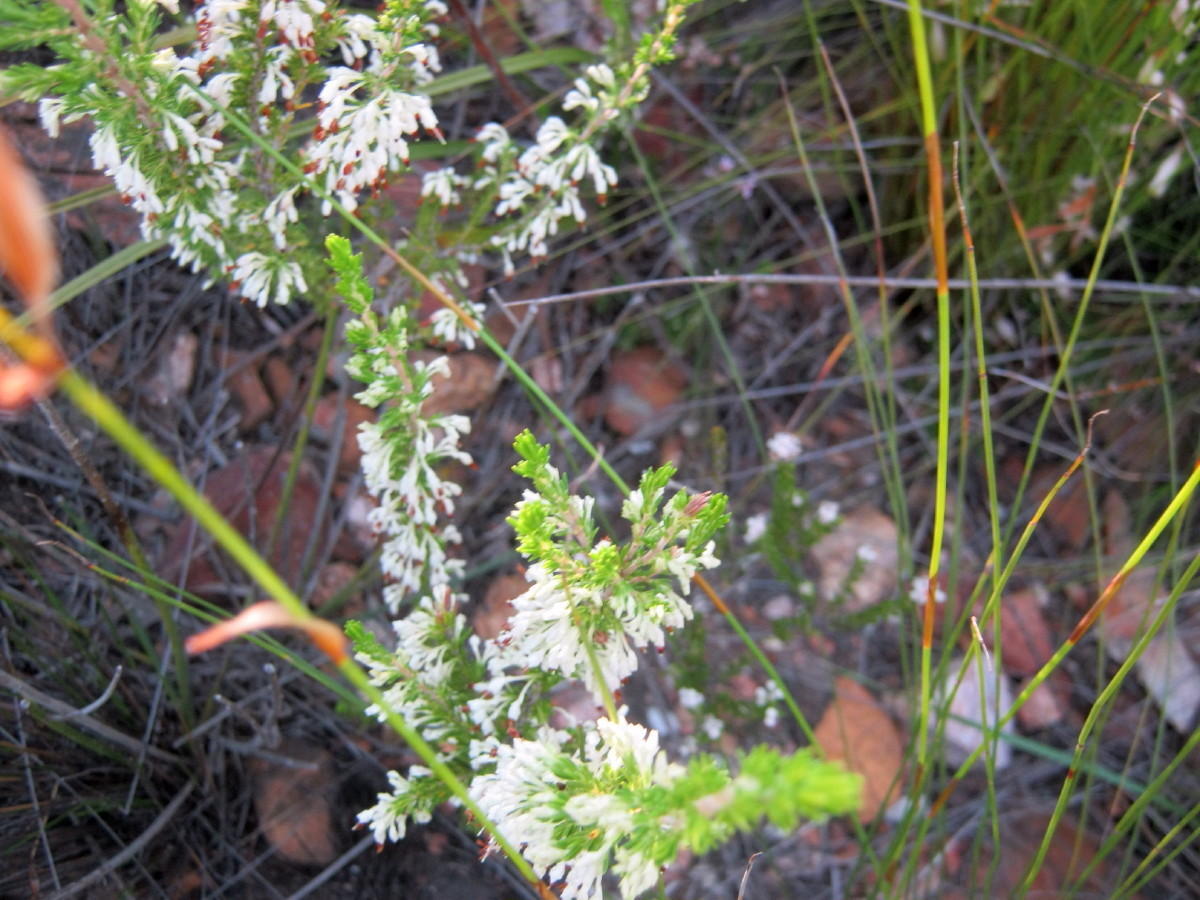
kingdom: Plantae
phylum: Tracheophyta
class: Magnoliopsida
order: Ericales
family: Ericaceae
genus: Erica
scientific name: Erica imbricata
